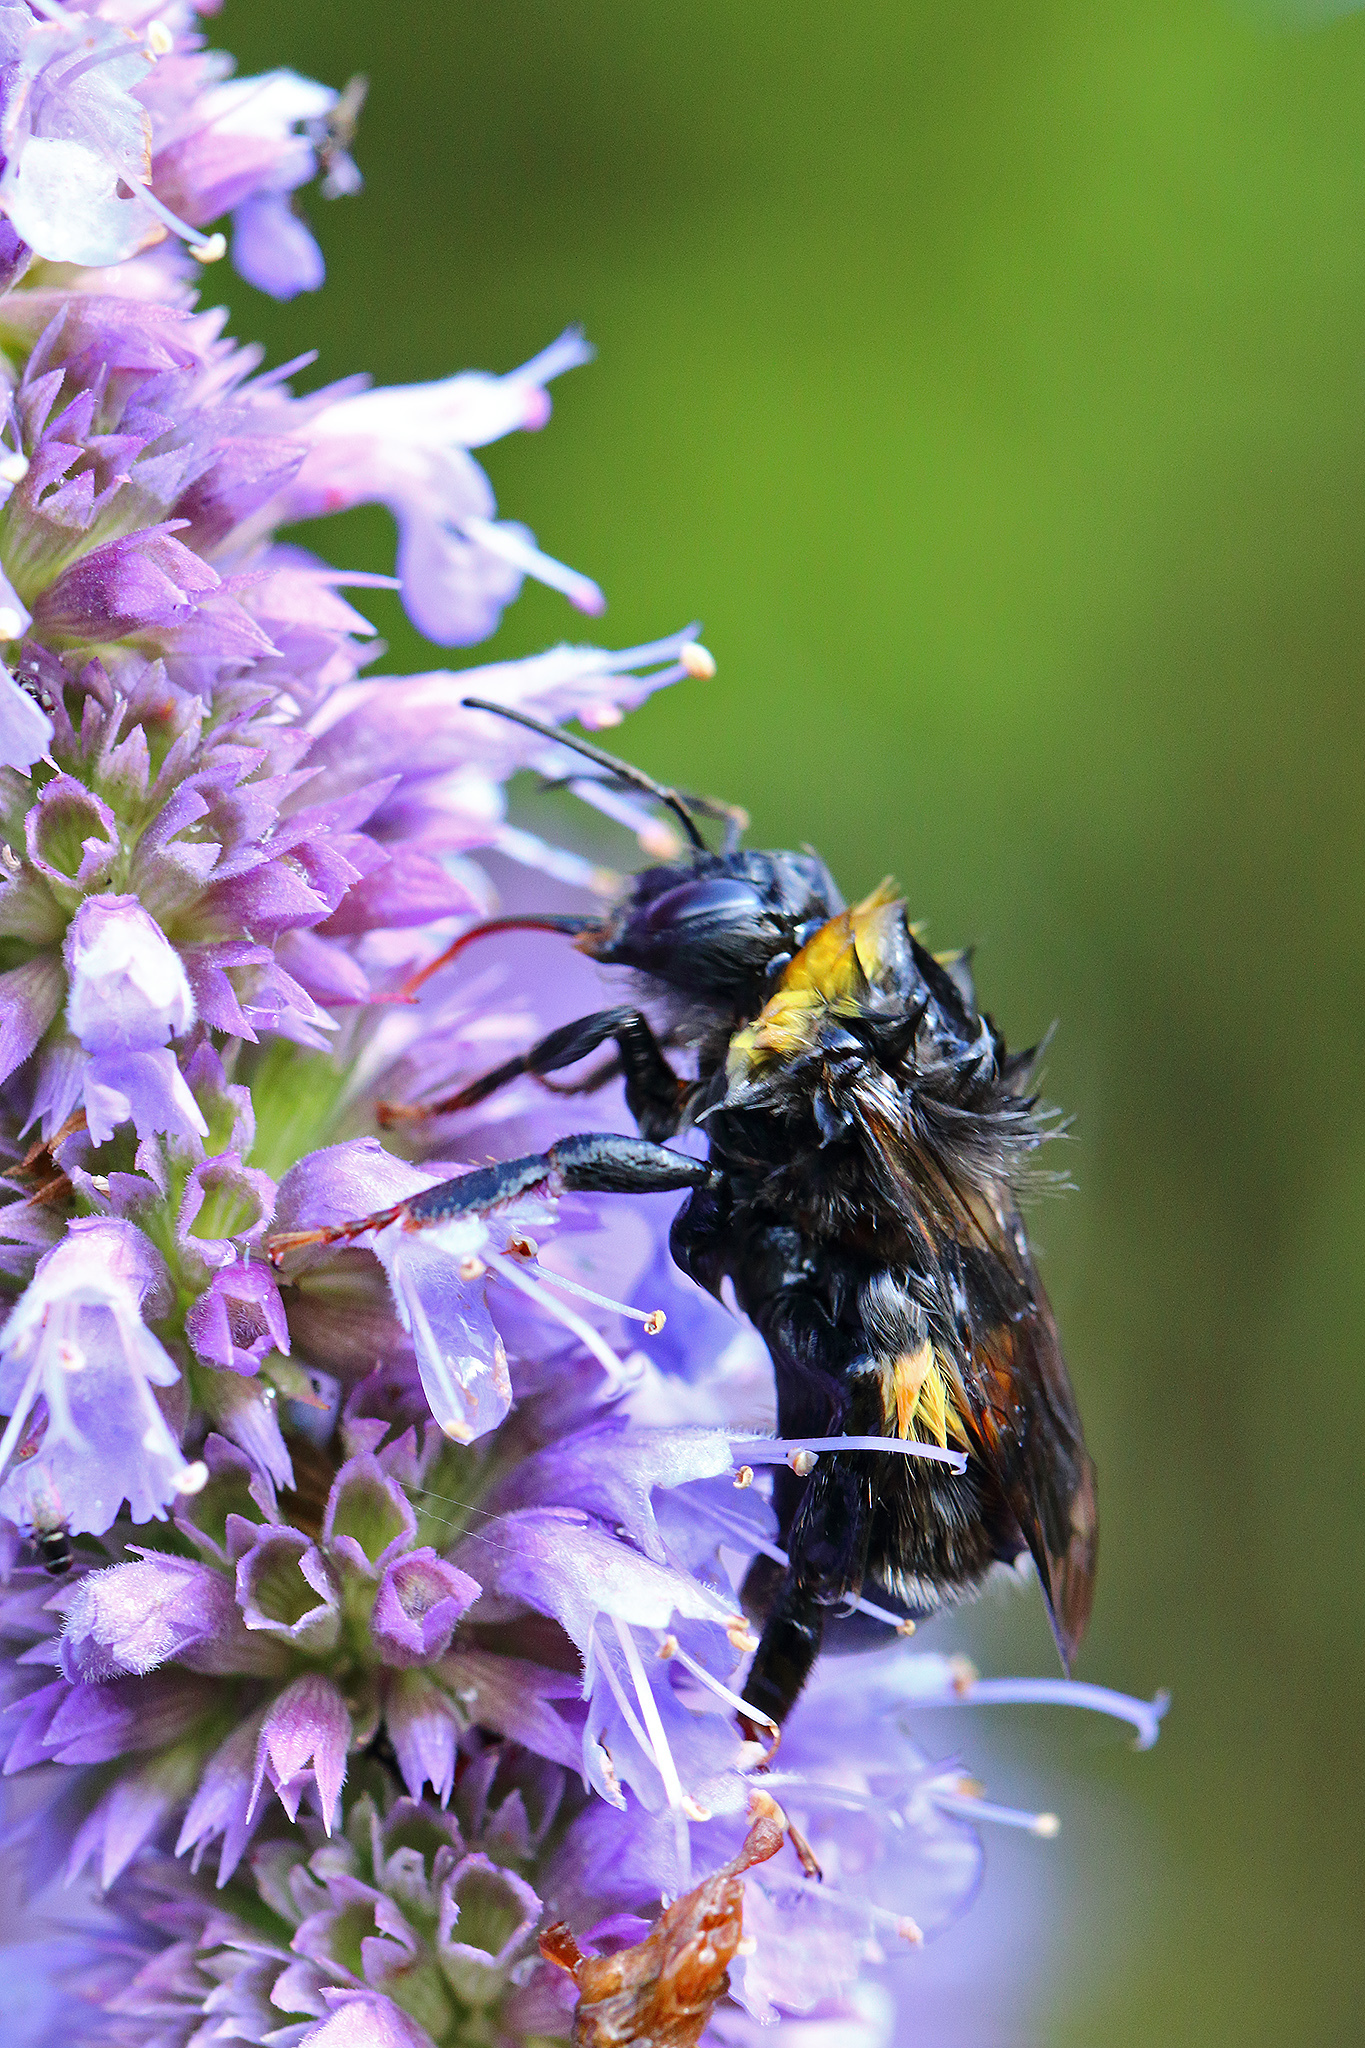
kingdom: Animalia
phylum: Arthropoda
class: Insecta
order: Hymenoptera
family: Apidae
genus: Bombus
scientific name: Bombus lucorum
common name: White-tailed bumblebee
